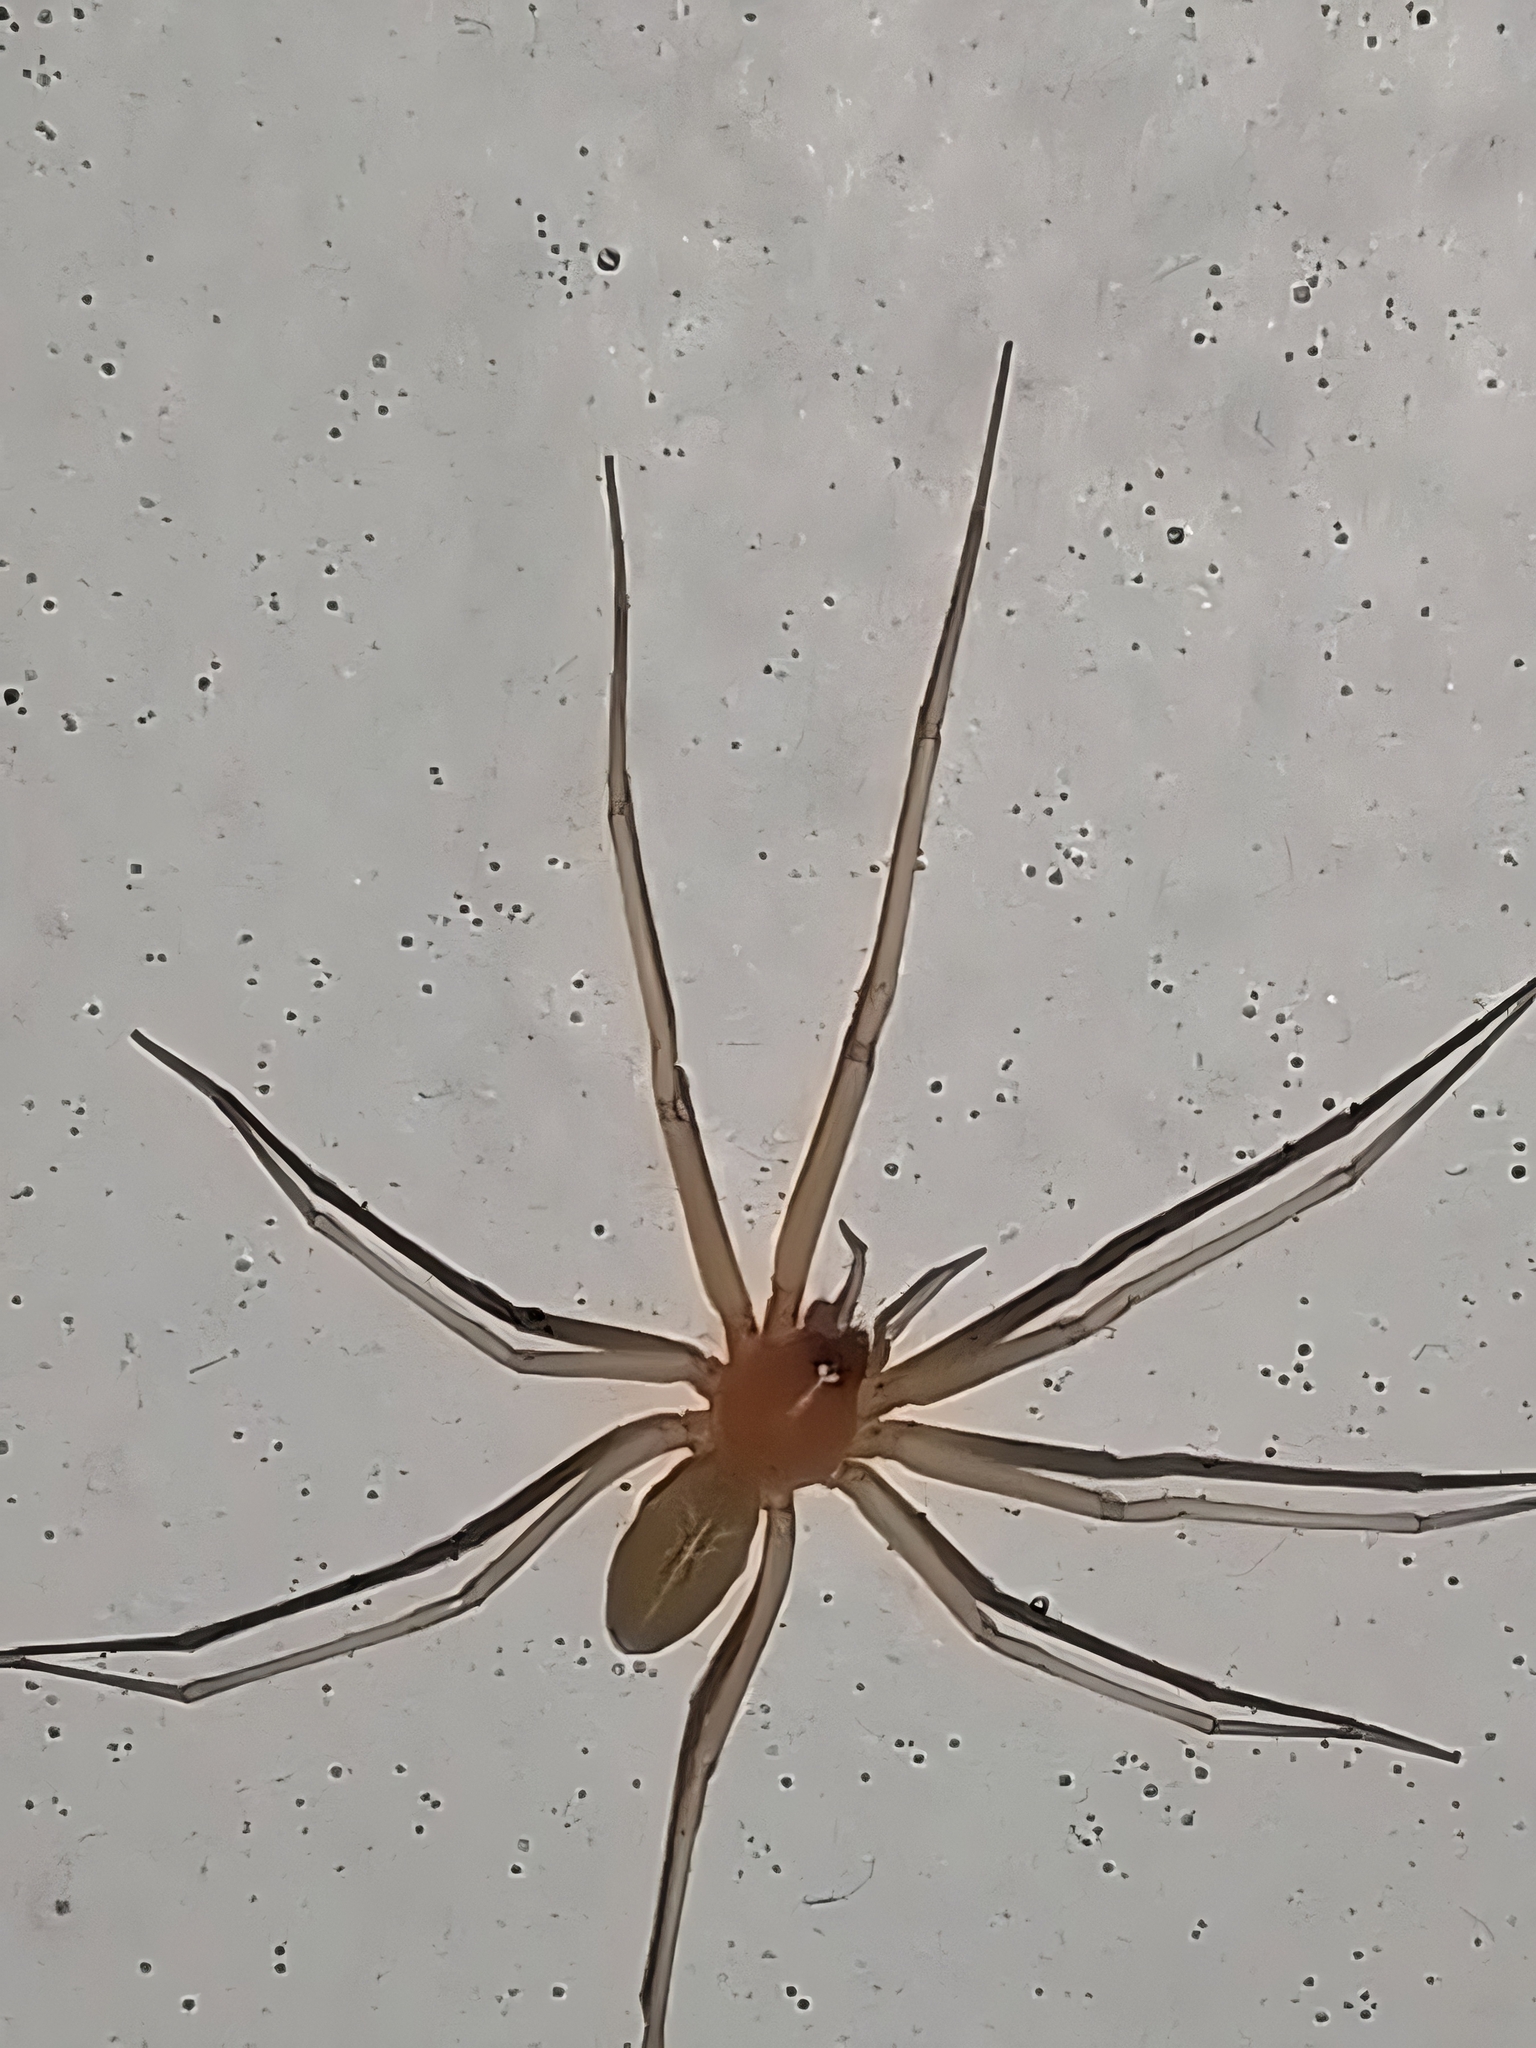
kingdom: Animalia
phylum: Arthropoda
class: Arachnida
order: Araneae
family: Cithaeronidae
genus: Cithaeron
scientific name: Cithaeron praedonius
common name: Synanthropic spider
